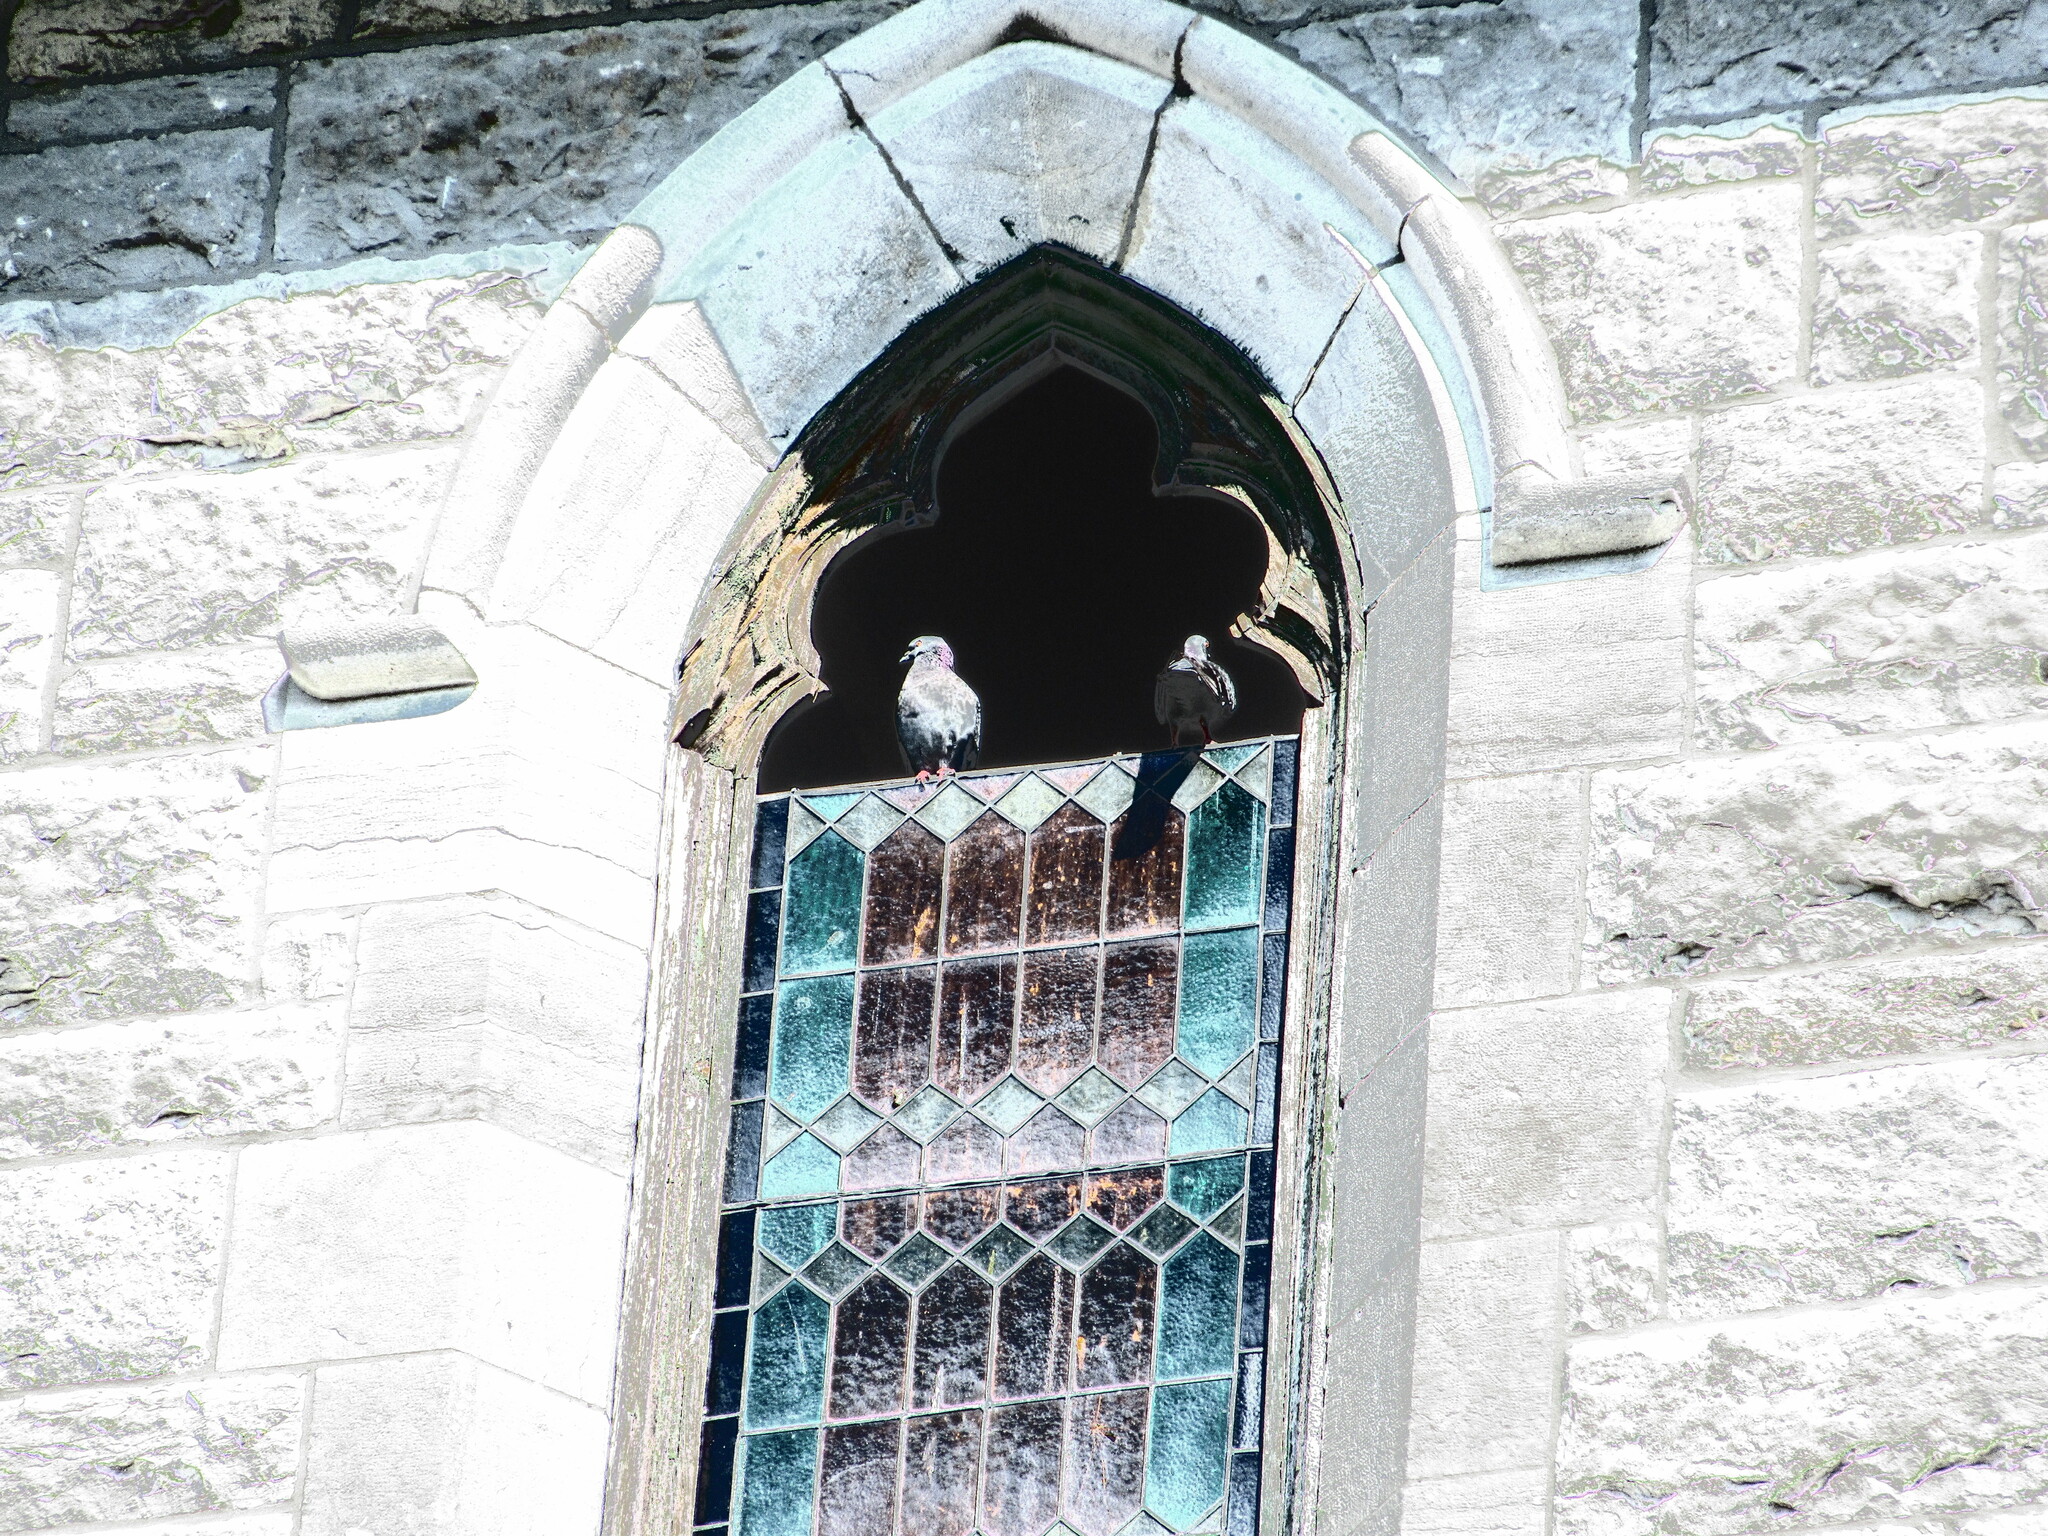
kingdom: Animalia
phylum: Chordata
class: Aves
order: Columbiformes
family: Columbidae
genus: Columba
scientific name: Columba livia
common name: Rock pigeon
